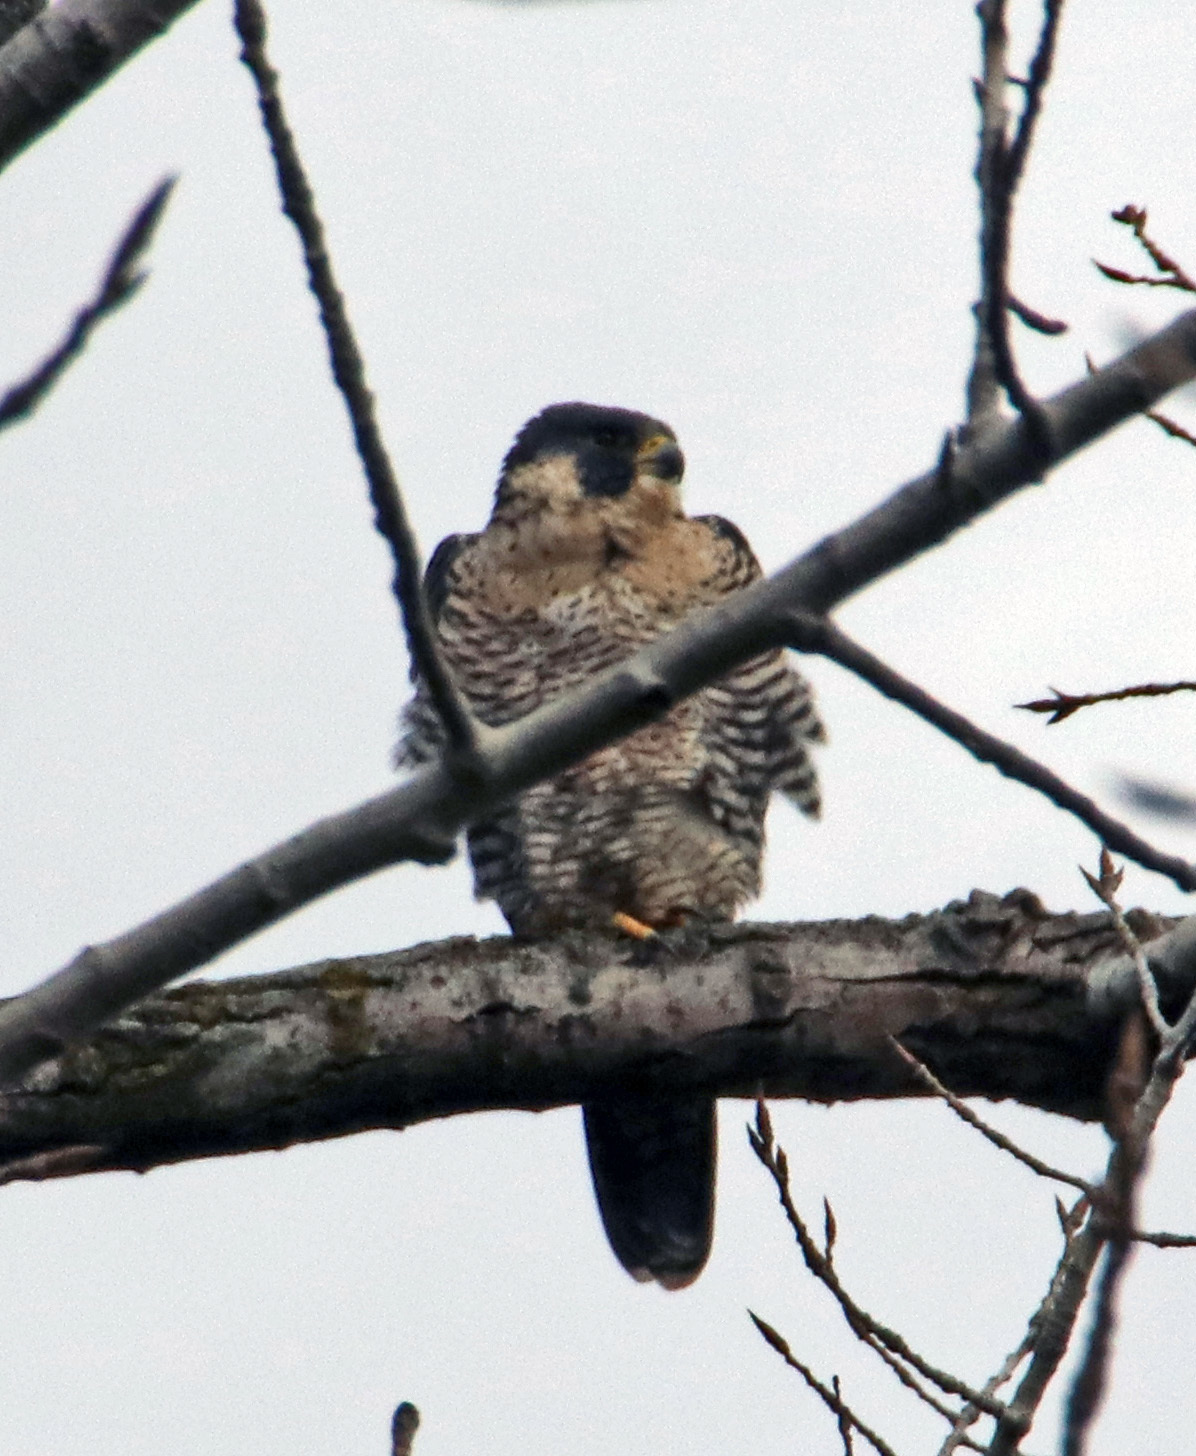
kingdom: Animalia
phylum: Chordata
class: Aves
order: Falconiformes
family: Falconidae
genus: Falco
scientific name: Falco peregrinus
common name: Peregrine falcon
